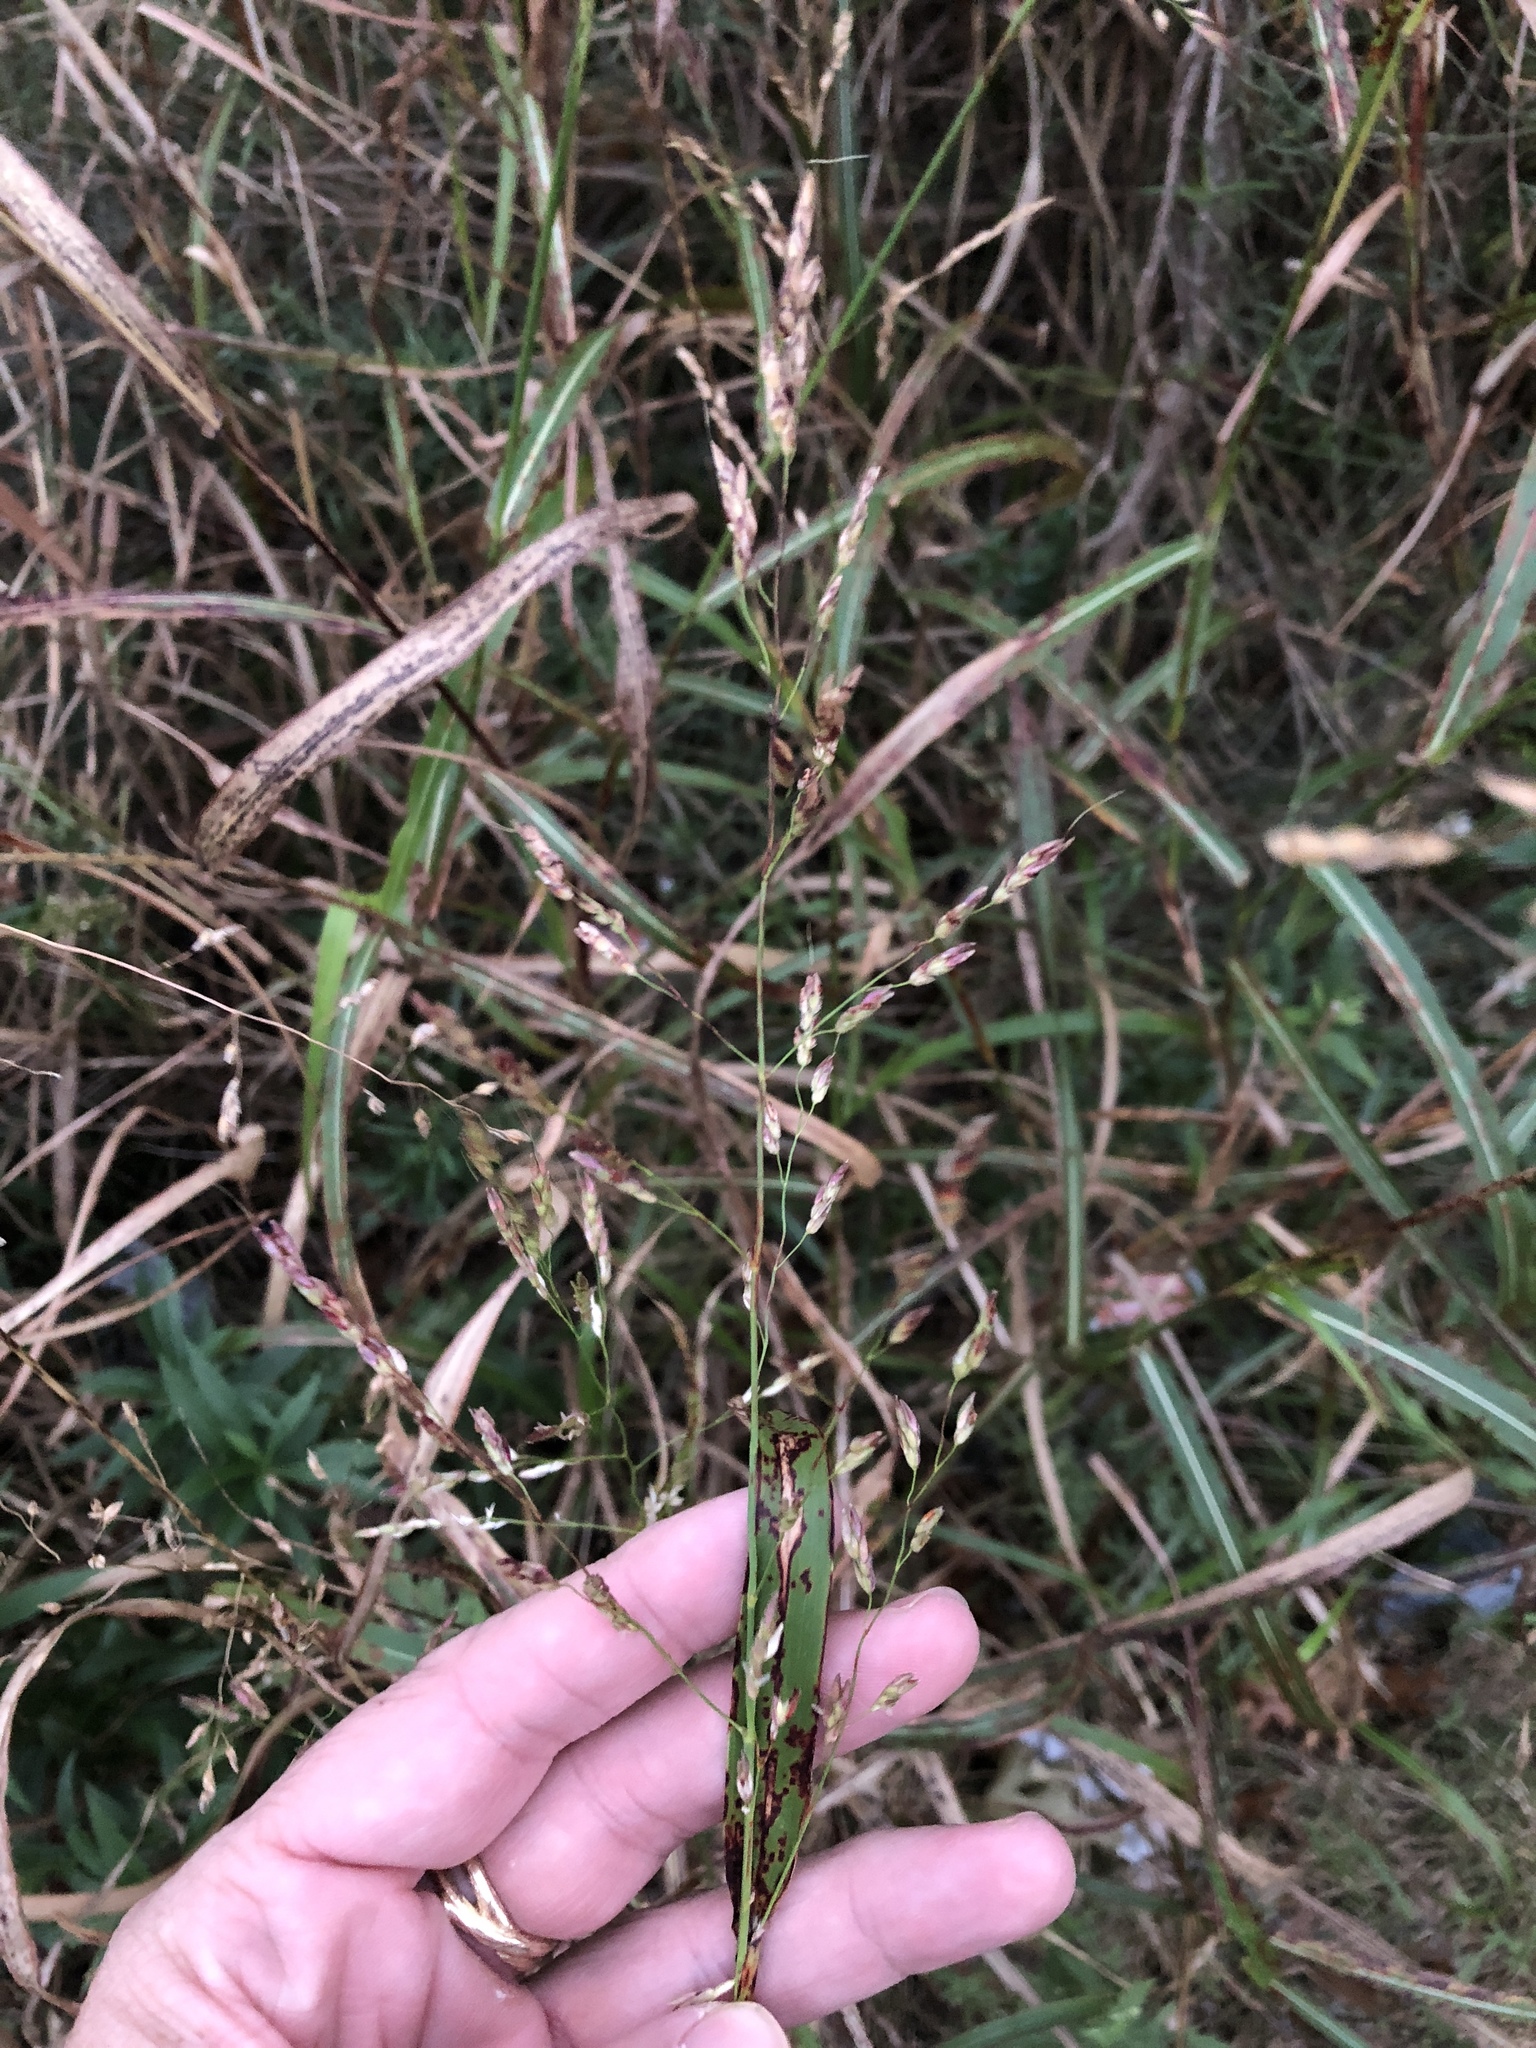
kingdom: Plantae
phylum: Tracheophyta
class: Liliopsida
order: Poales
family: Poaceae
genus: Sorghum
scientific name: Sorghum halepense
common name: Johnson-grass
